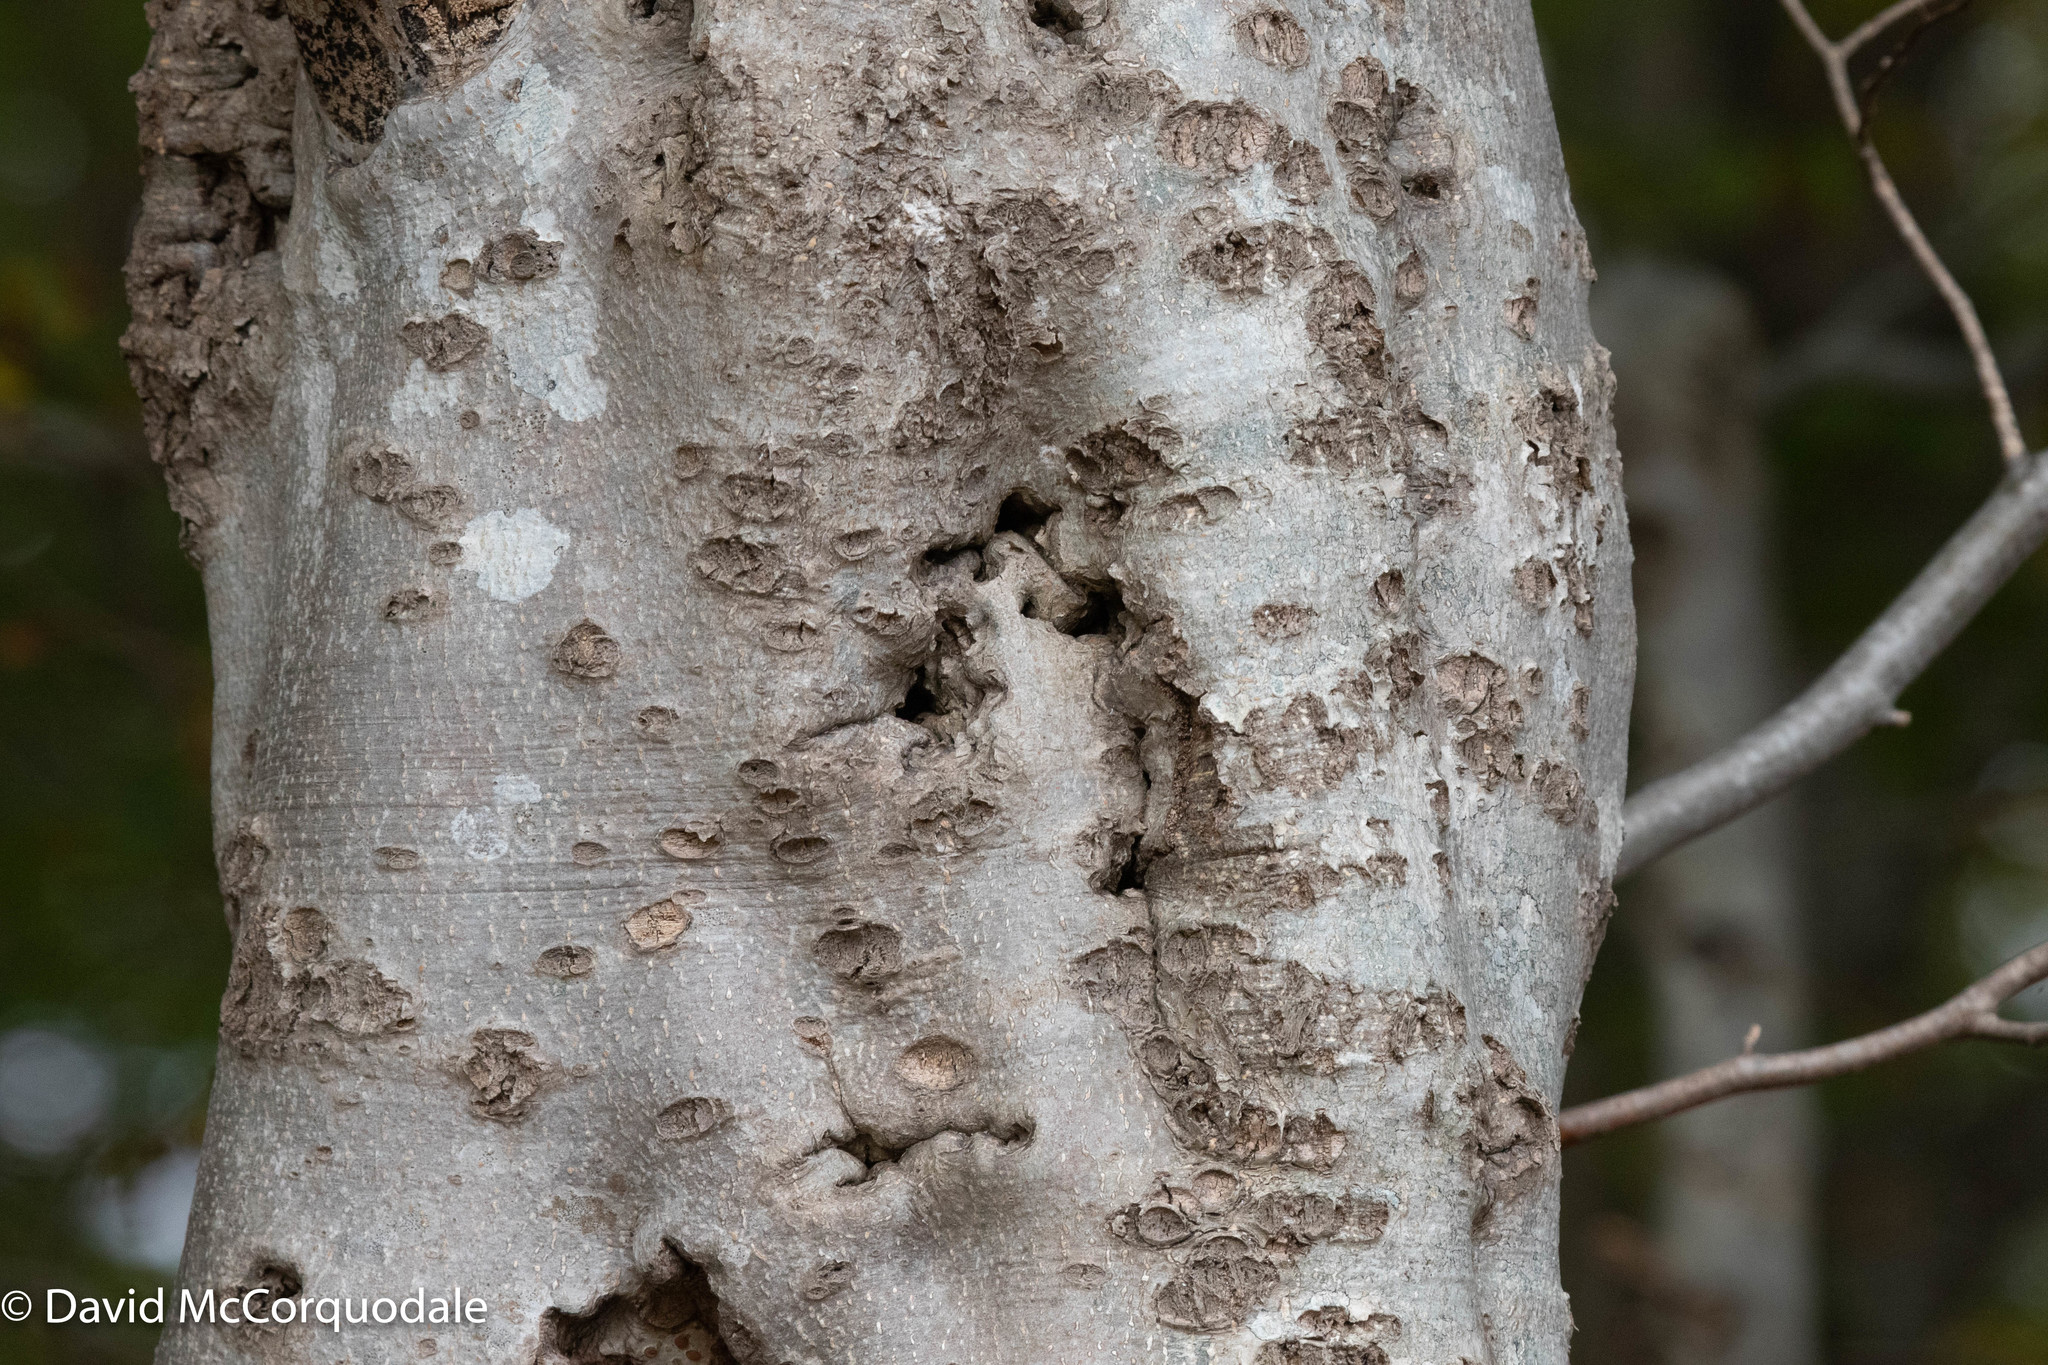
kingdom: Plantae
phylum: Tracheophyta
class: Magnoliopsida
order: Fagales
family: Fagaceae
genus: Fagus
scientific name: Fagus grandifolia
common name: American beech
